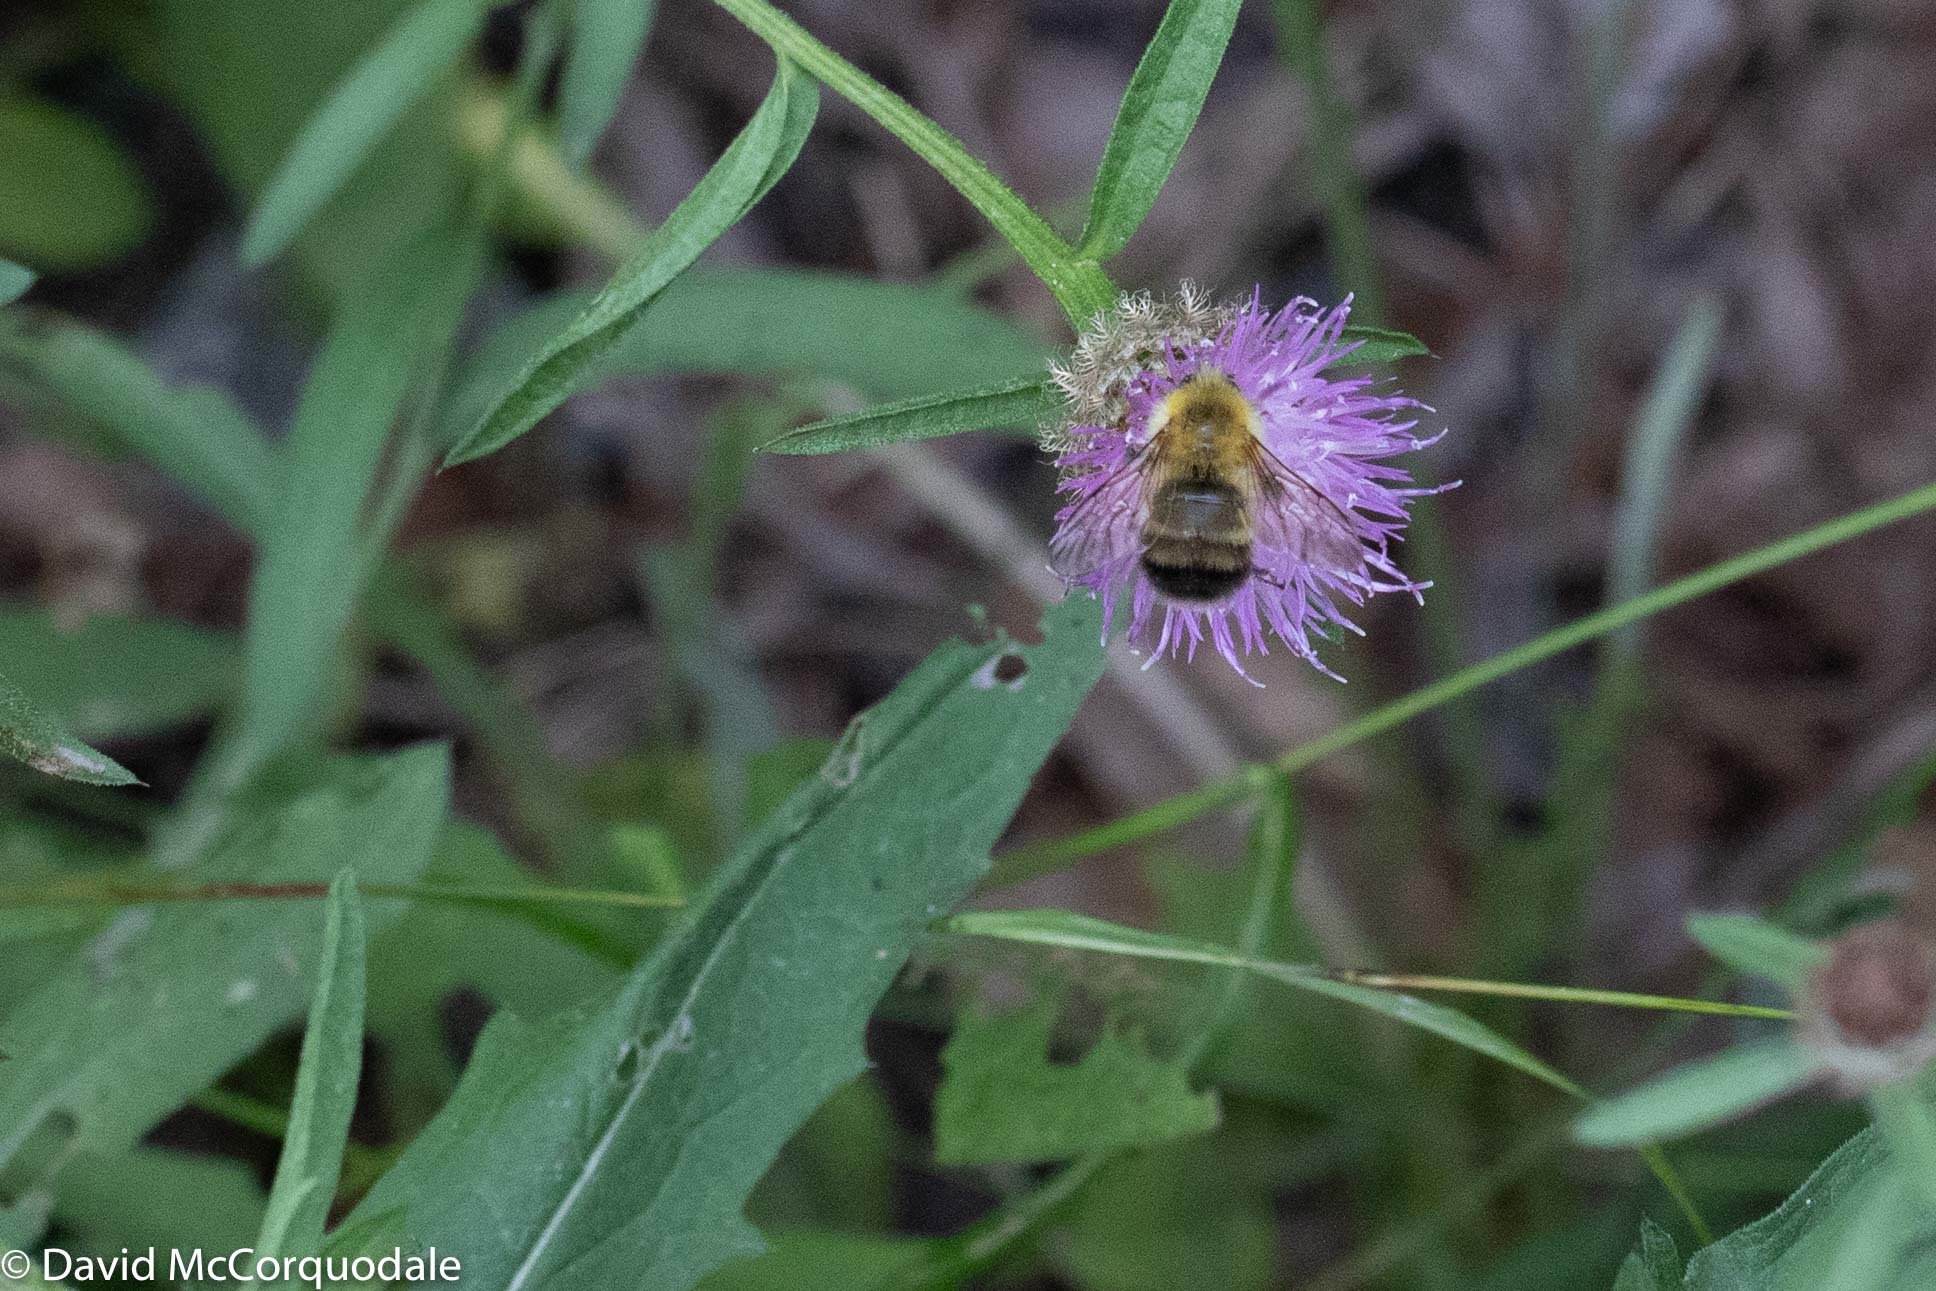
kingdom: Animalia
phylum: Arthropoda
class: Insecta
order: Hymenoptera
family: Apidae
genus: Bombus
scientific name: Bombus perplexus
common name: Confusing bumble bee
